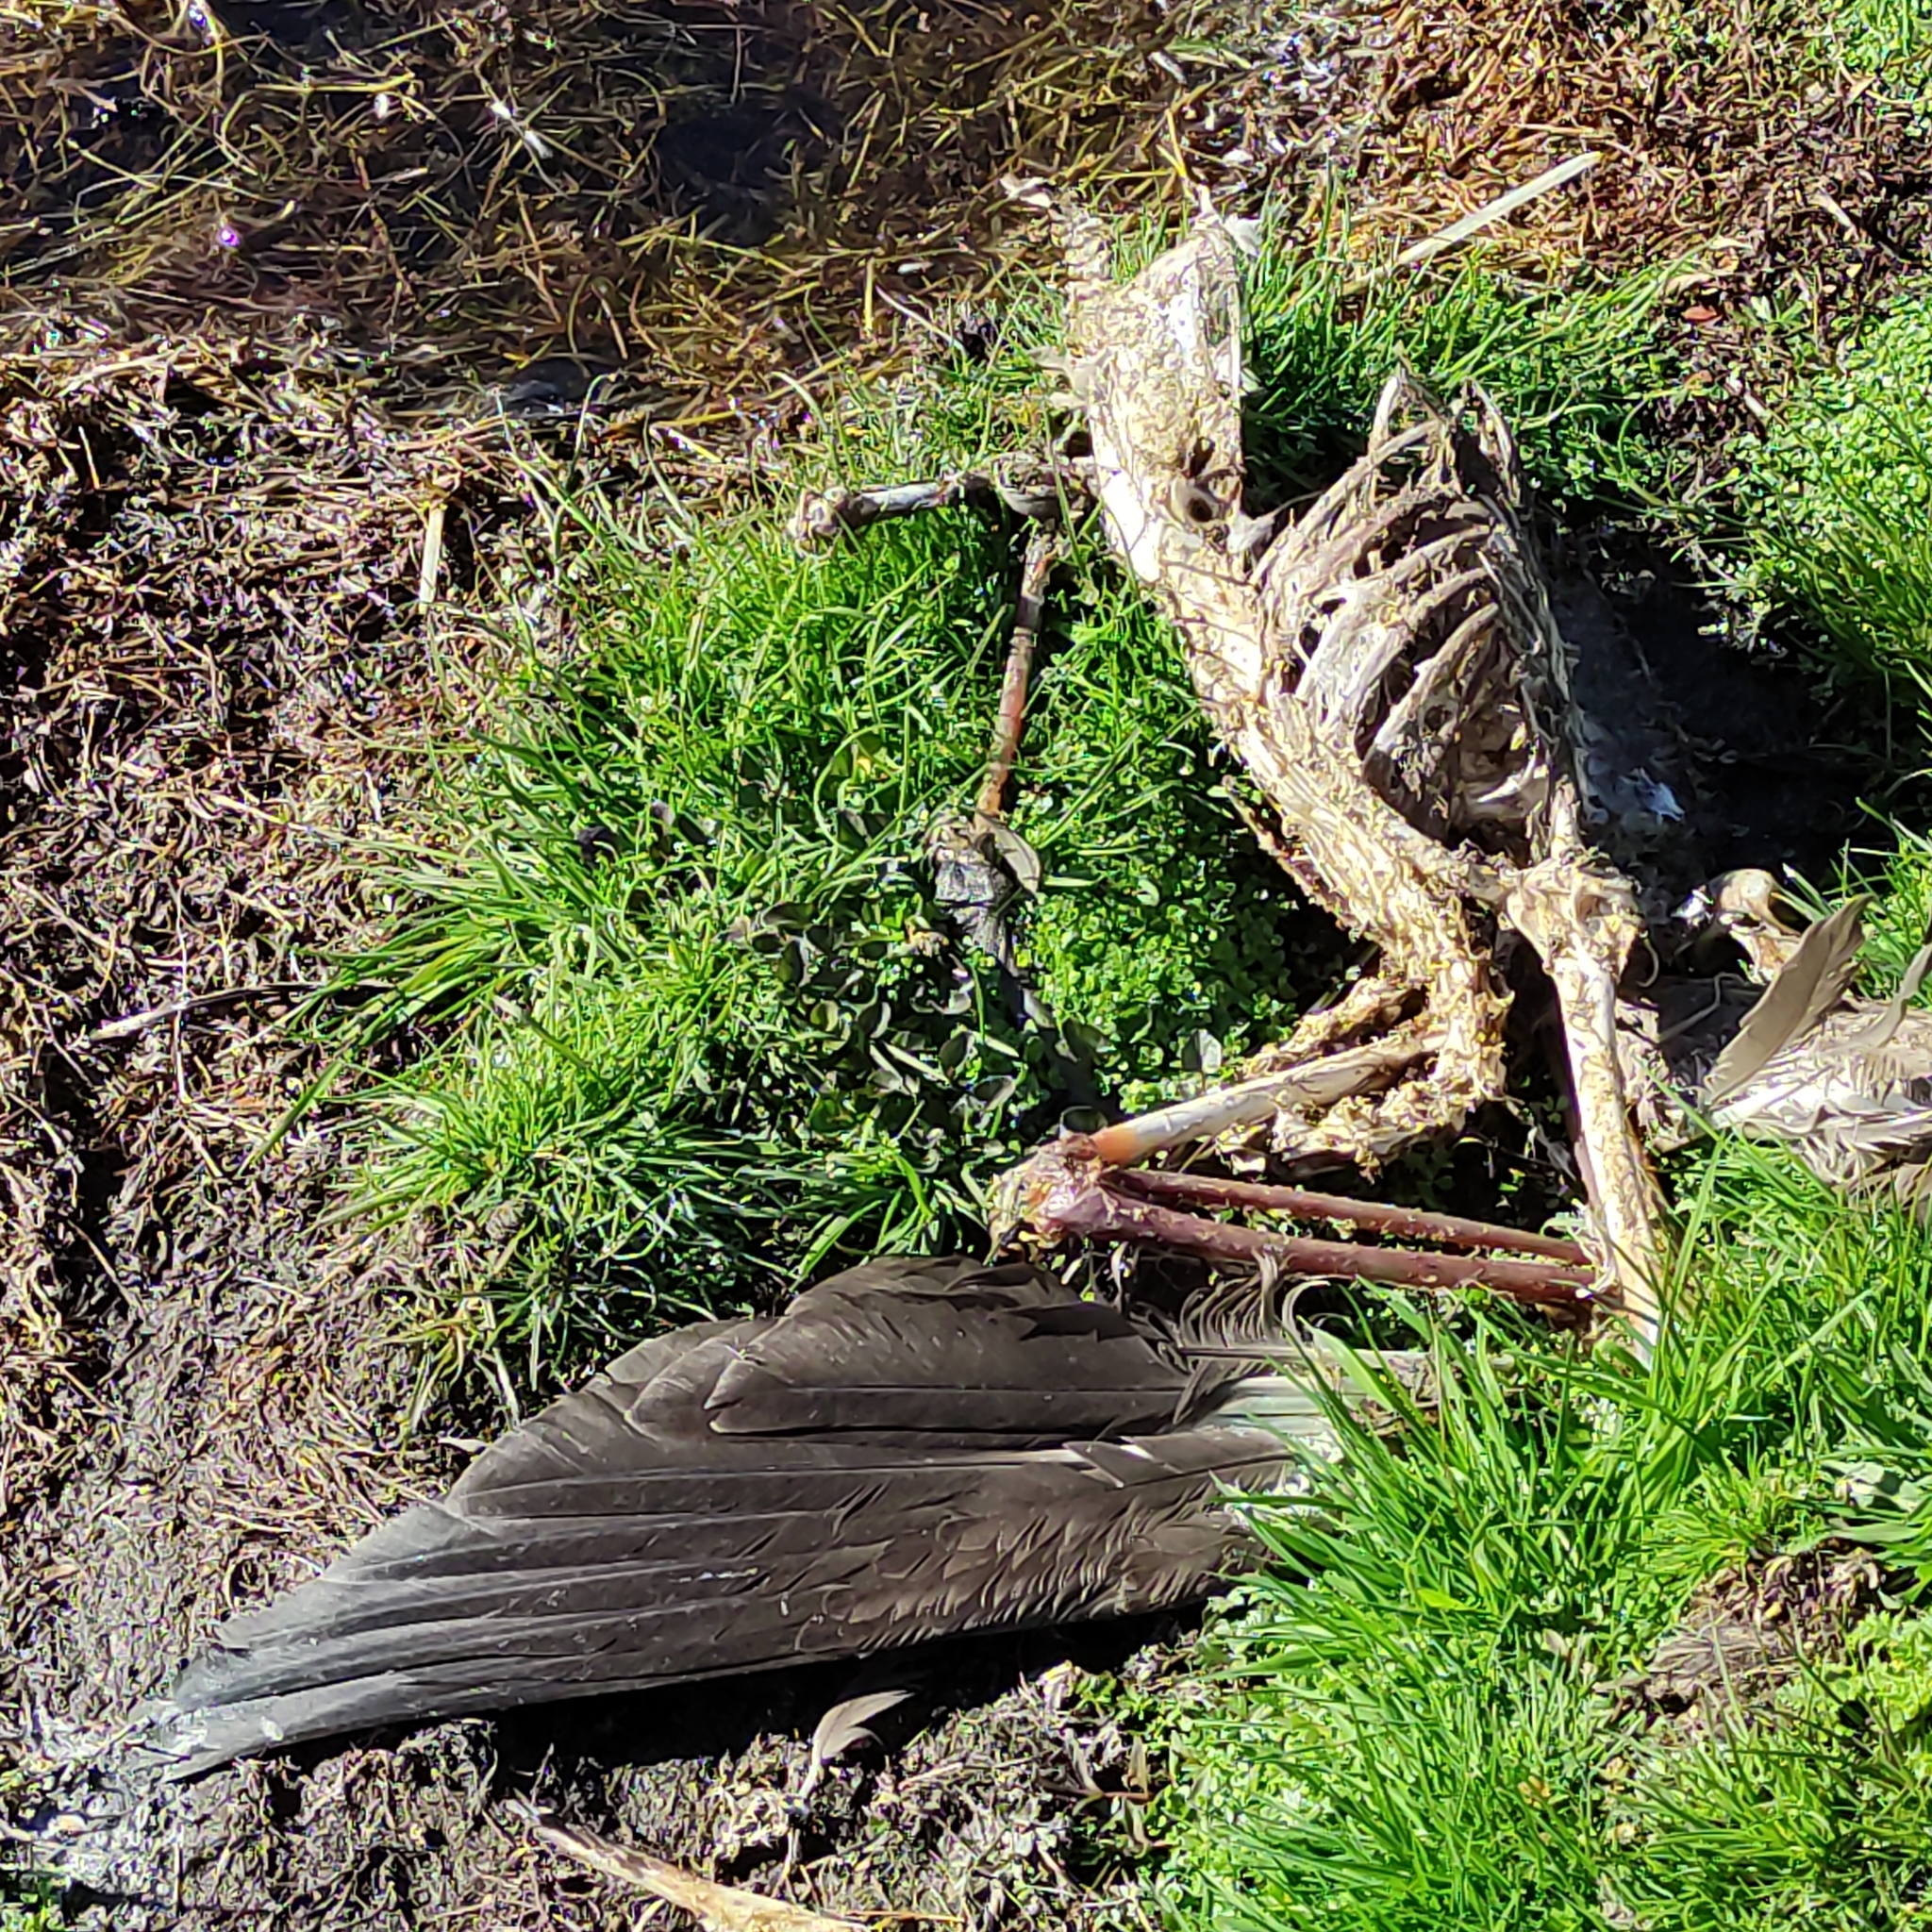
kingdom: Animalia
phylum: Chordata
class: Aves
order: Anseriformes
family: Anatidae
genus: Branta
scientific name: Branta canadensis
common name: Canada goose
